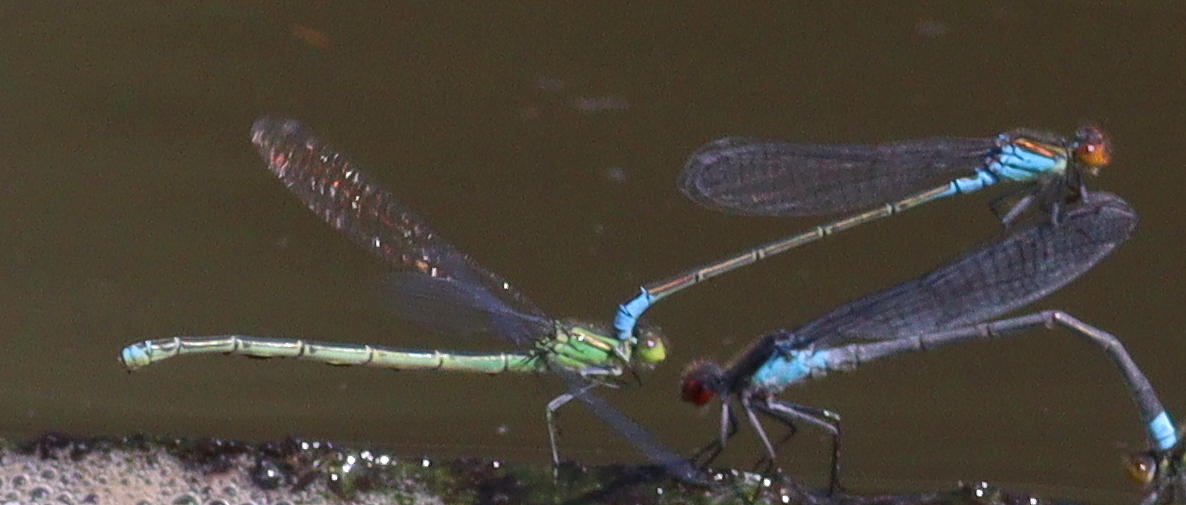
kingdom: Animalia
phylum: Arthropoda
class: Insecta
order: Odonata
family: Coenagrionidae
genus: Erythromma
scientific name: Erythromma viridulum
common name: Small red-eyed damselfly
